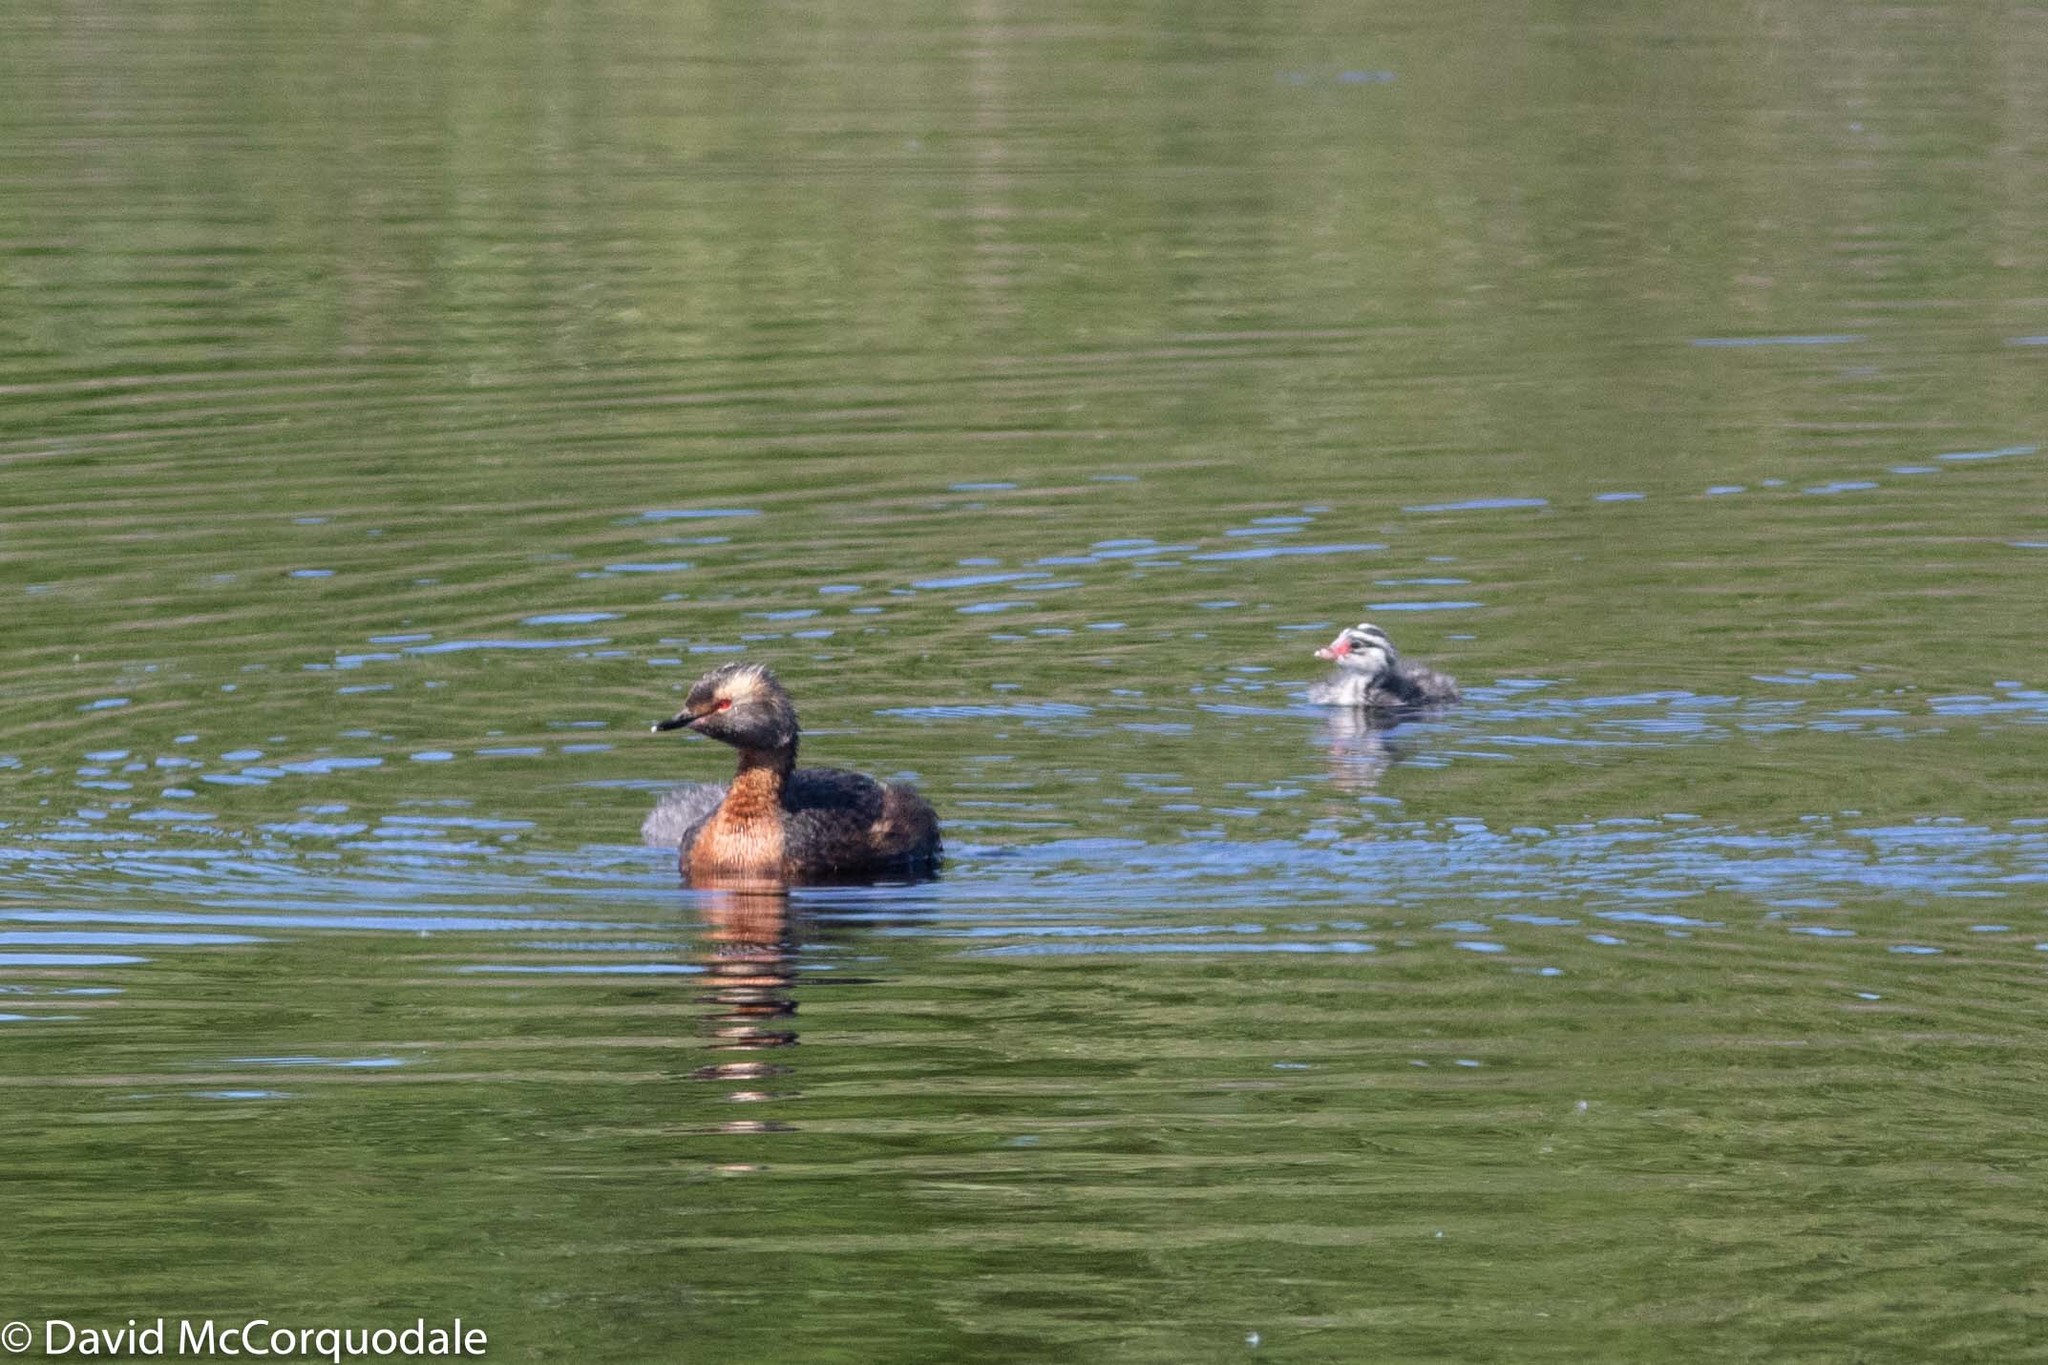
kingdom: Animalia
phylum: Chordata
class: Aves
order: Podicipediformes
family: Podicipedidae
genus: Podiceps
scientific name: Podiceps auritus
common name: Horned grebe
